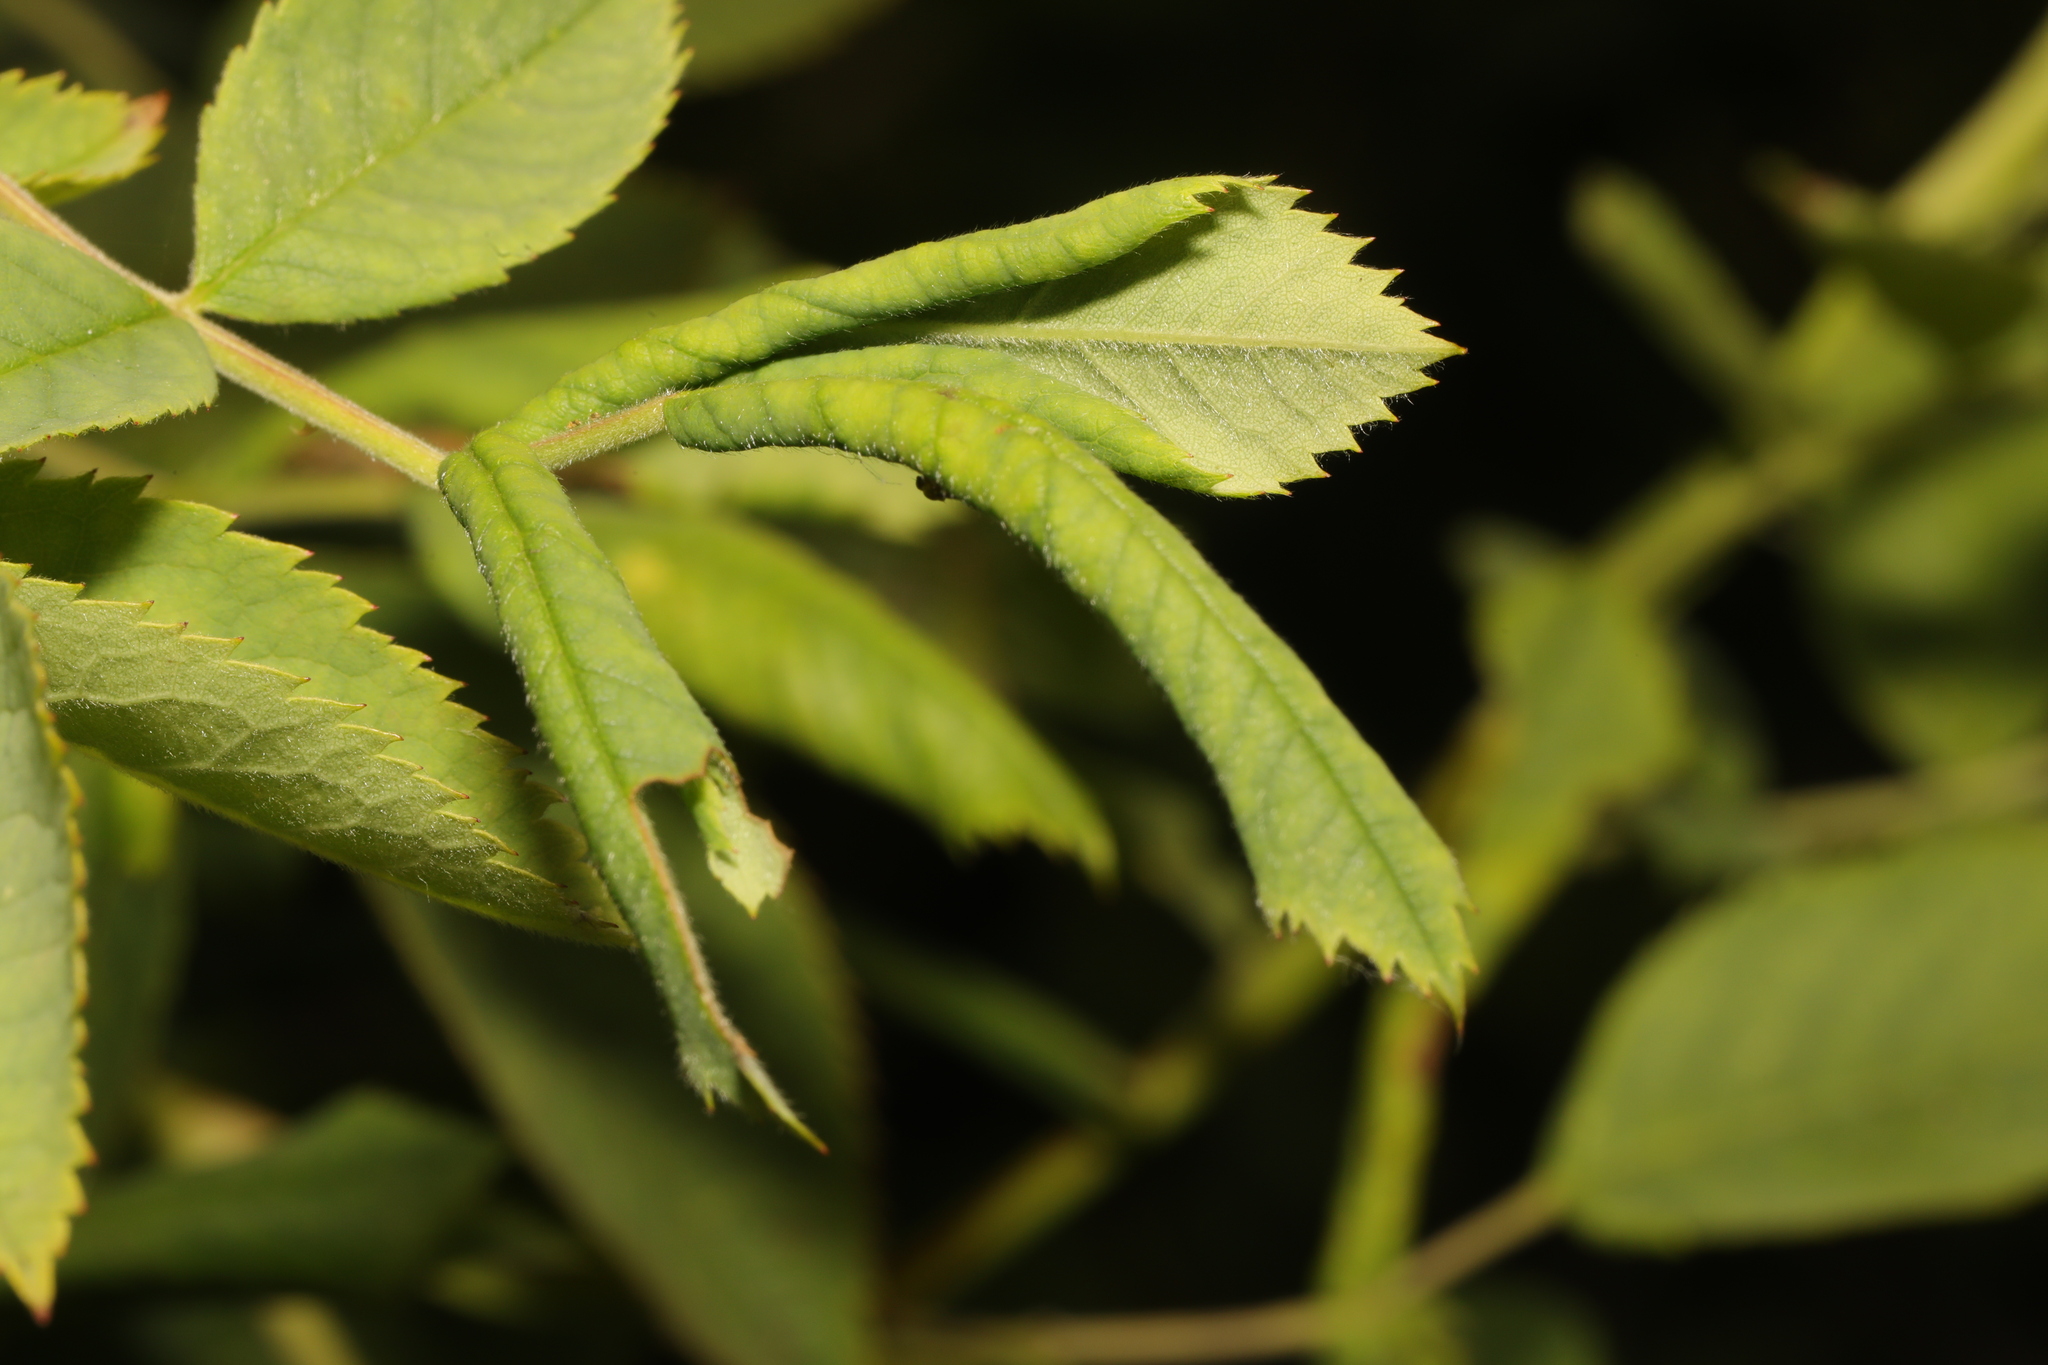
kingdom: Animalia
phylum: Arthropoda
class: Insecta
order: Hymenoptera
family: Tenthredinidae
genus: Blennocampa
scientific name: Blennocampa phyllocolpa
